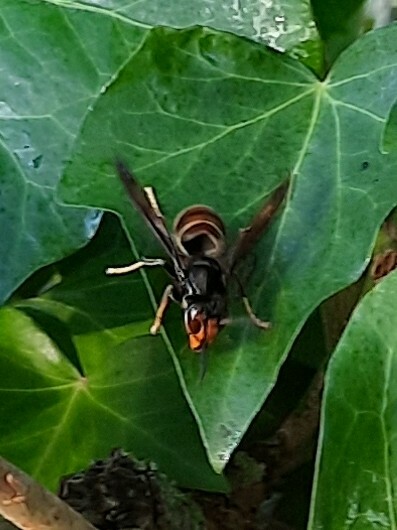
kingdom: Animalia
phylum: Arthropoda
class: Insecta
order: Hymenoptera
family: Vespidae
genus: Vespa
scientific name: Vespa velutina
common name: Asian hornet
